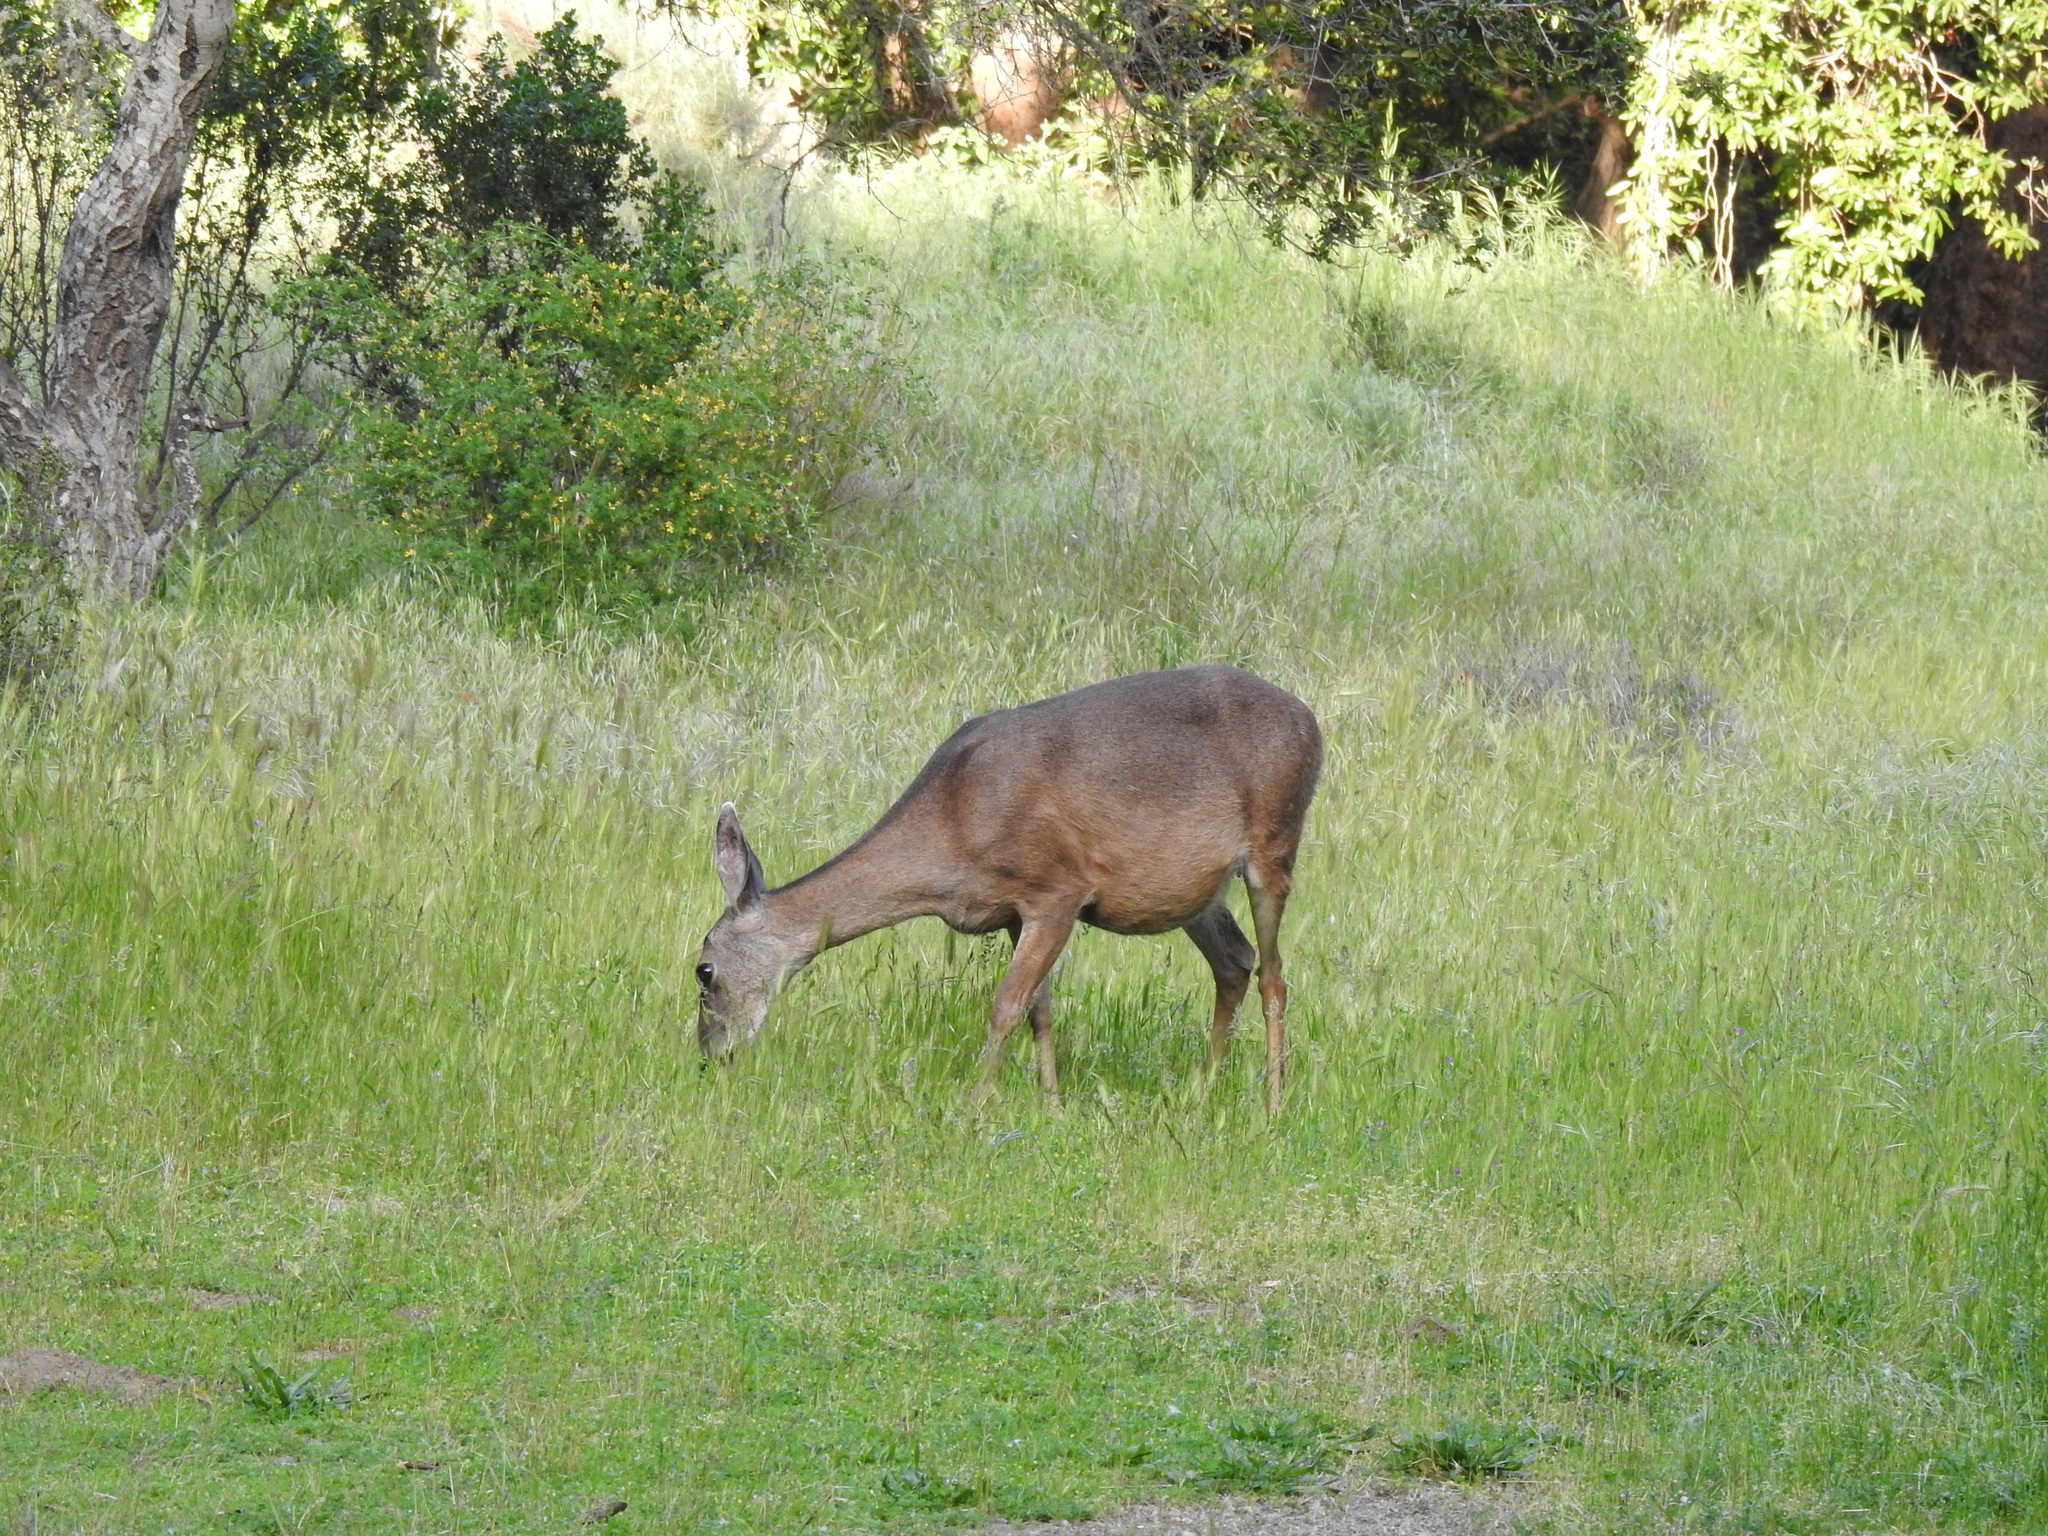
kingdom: Animalia
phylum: Chordata
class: Mammalia
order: Artiodactyla
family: Cervidae
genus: Odocoileus
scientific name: Odocoileus hemionus
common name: Mule deer
